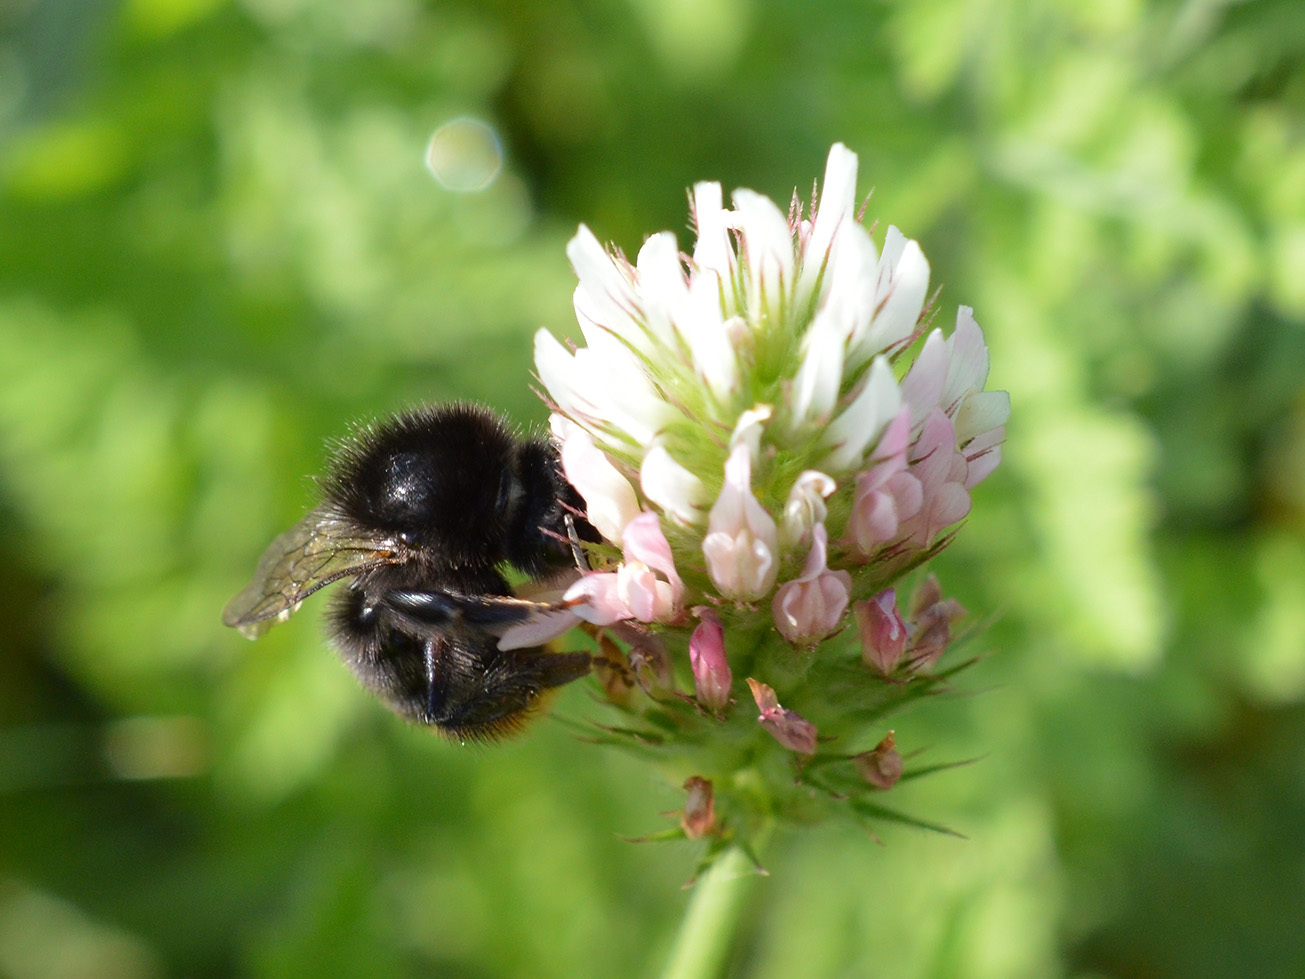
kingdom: Animalia
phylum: Arthropoda
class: Insecta
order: Hymenoptera
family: Apidae
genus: Bombus
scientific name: Bombus lapidarius
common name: Large red-tailed humble-bee
